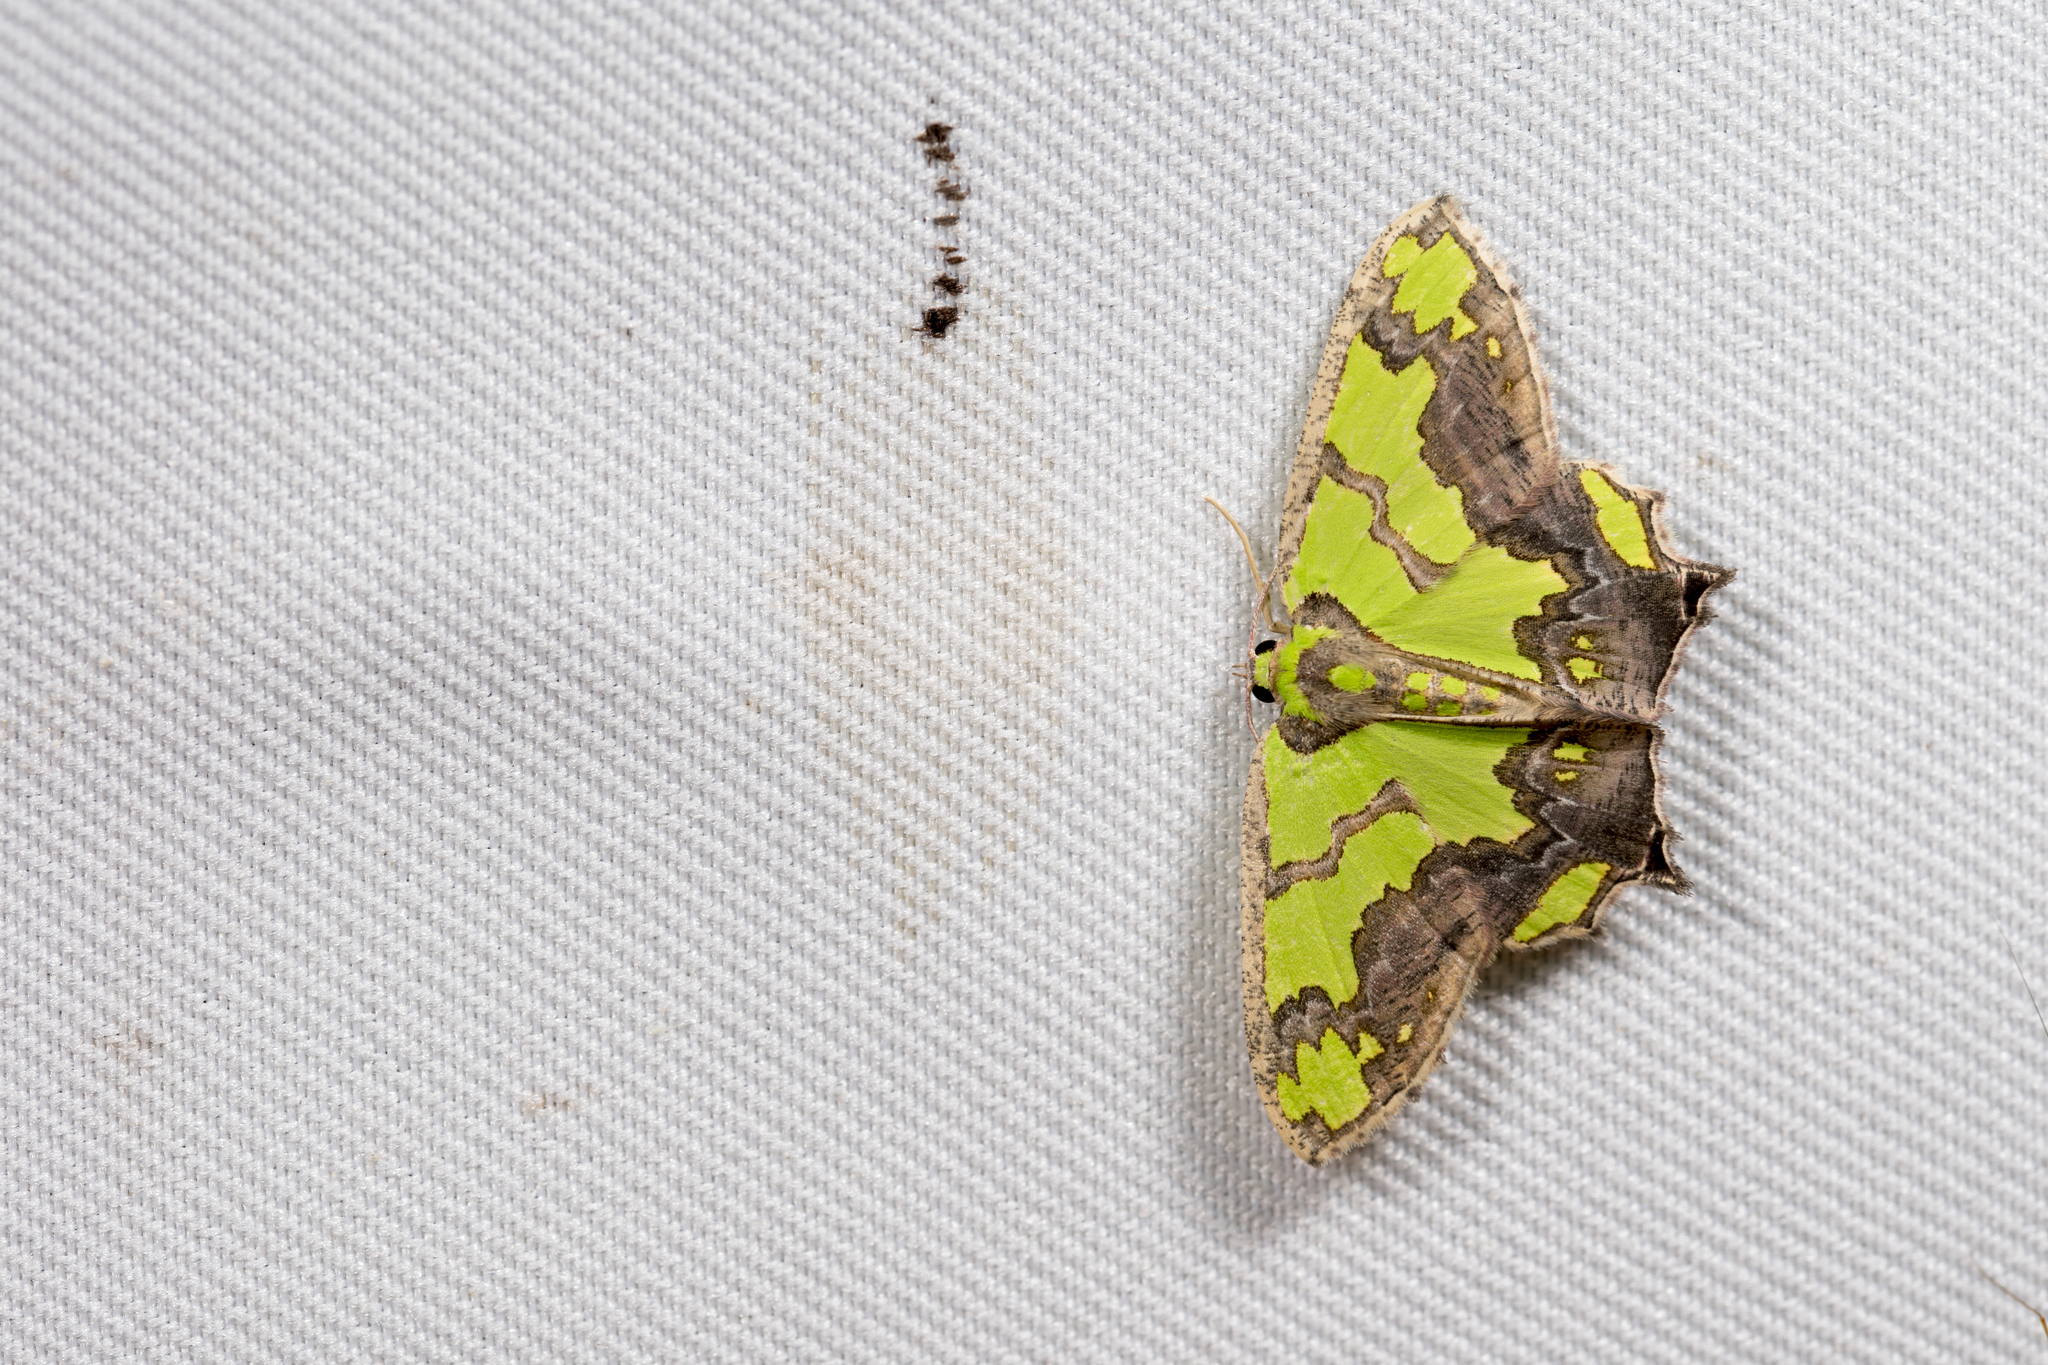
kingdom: Animalia
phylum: Arthropoda
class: Insecta
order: Lepidoptera
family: Geometridae
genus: Agathia
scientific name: Agathia hemithearia
